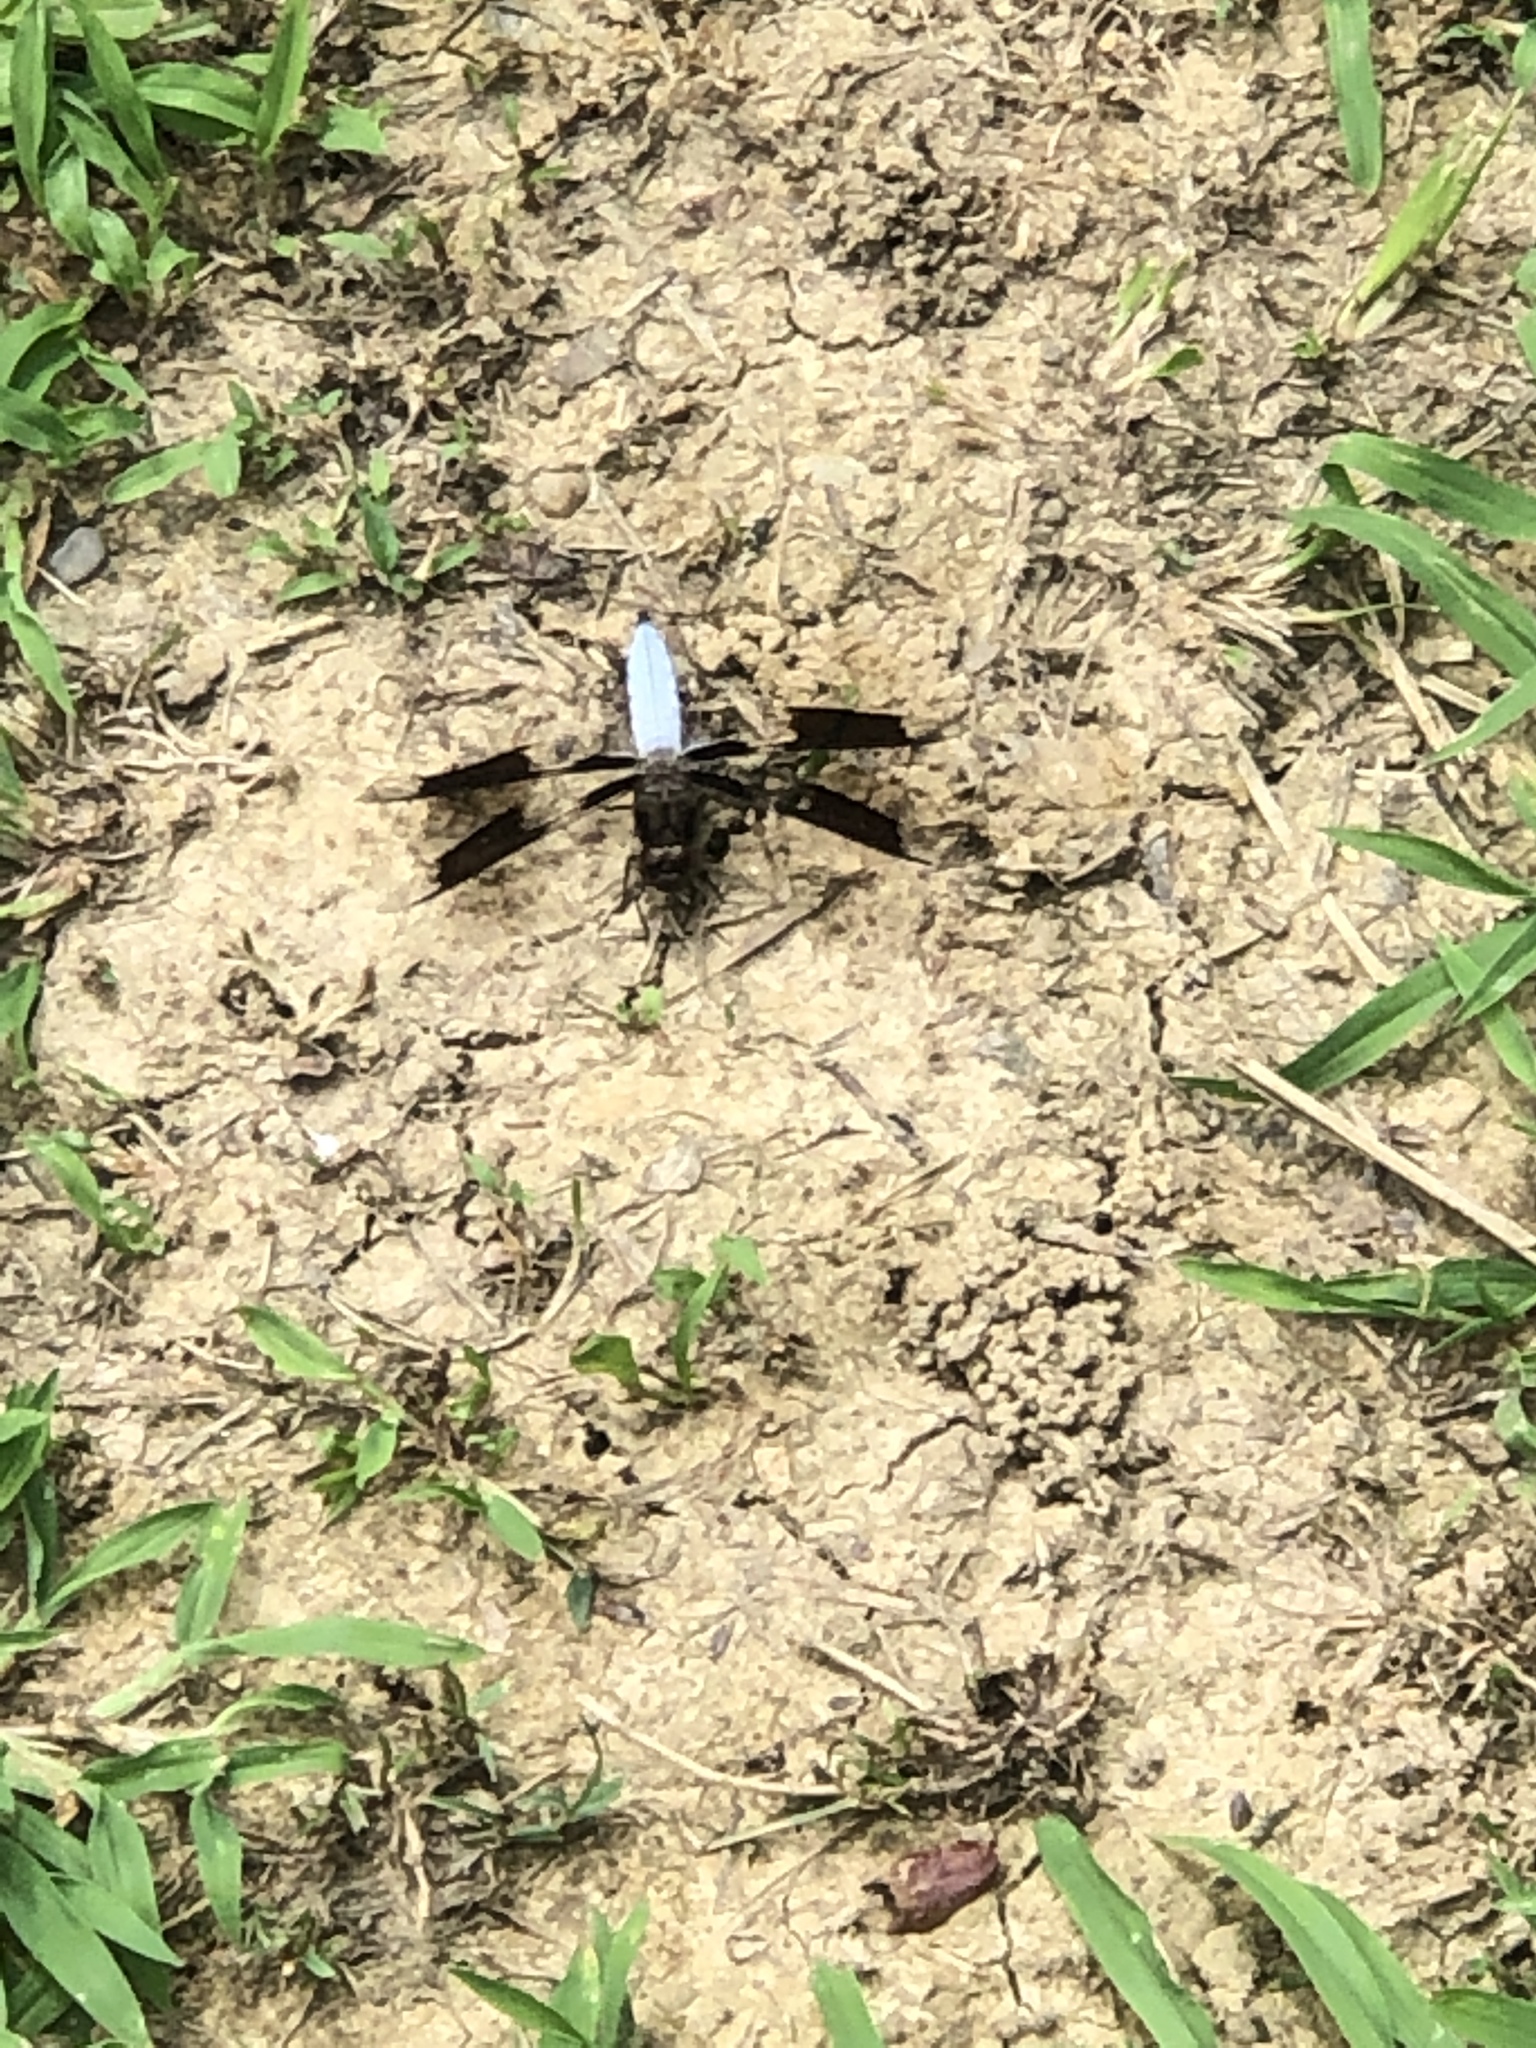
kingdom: Animalia
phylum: Arthropoda
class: Insecta
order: Odonata
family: Libellulidae
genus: Plathemis
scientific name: Plathemis lydia
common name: Common whitetail
